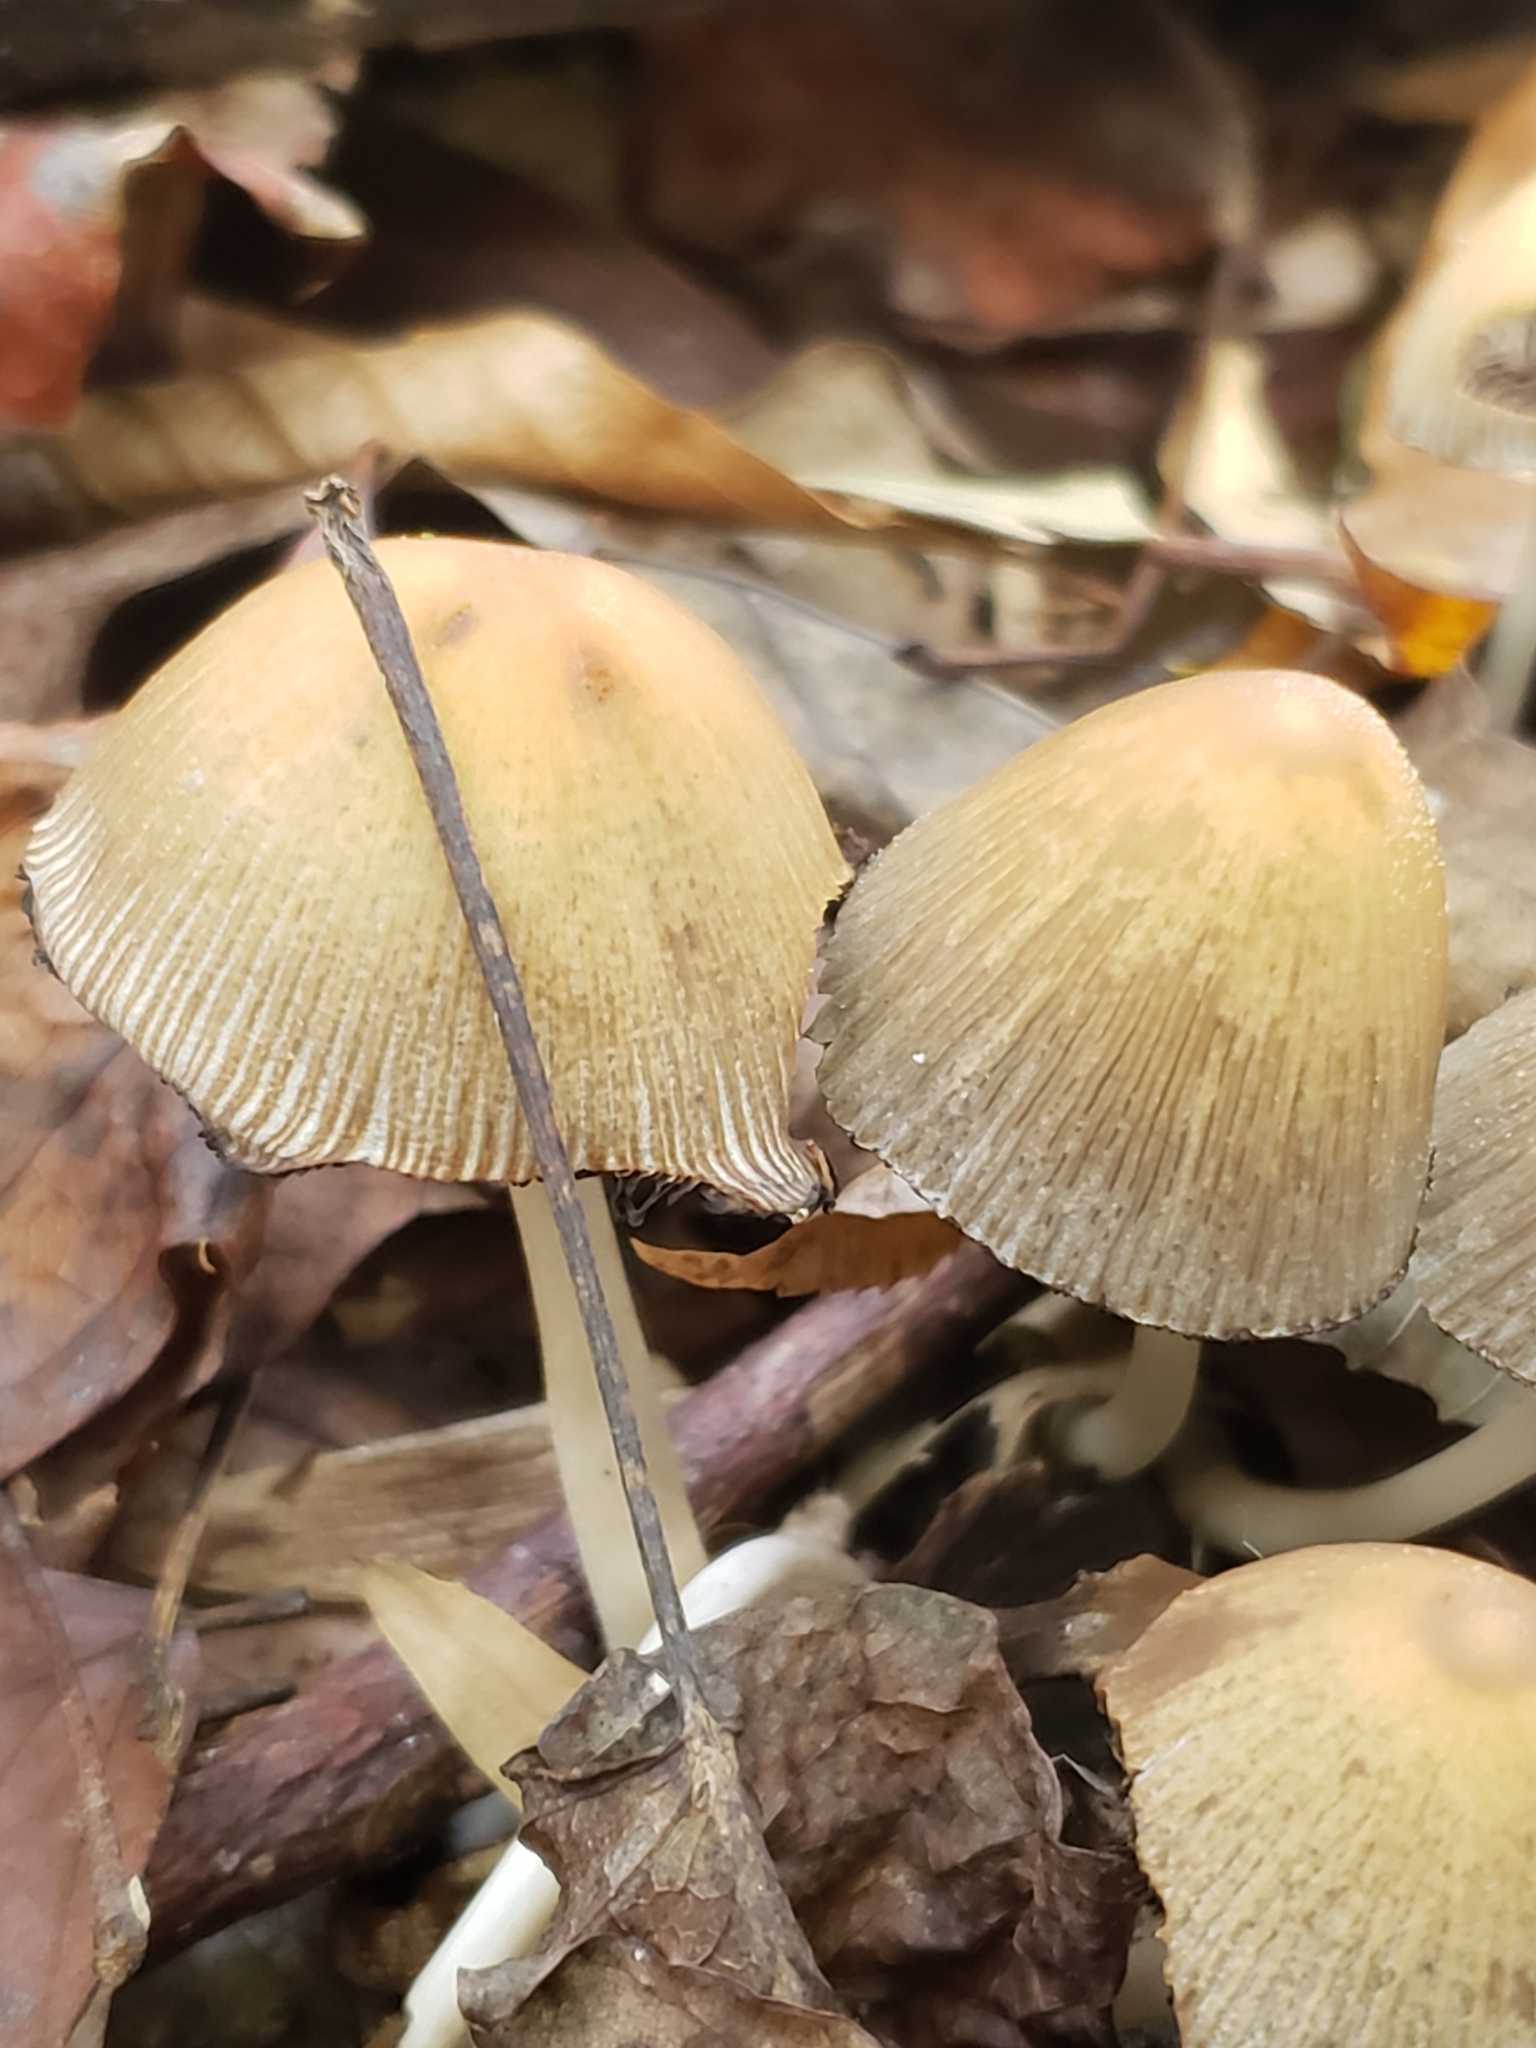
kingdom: Fungi
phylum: Basidiomycota
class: Agaricomycetes
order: Agaricales
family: Psathyrellaceae
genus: Coprinellus
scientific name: Coprinellus micaceus
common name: Glistening ink-cap
